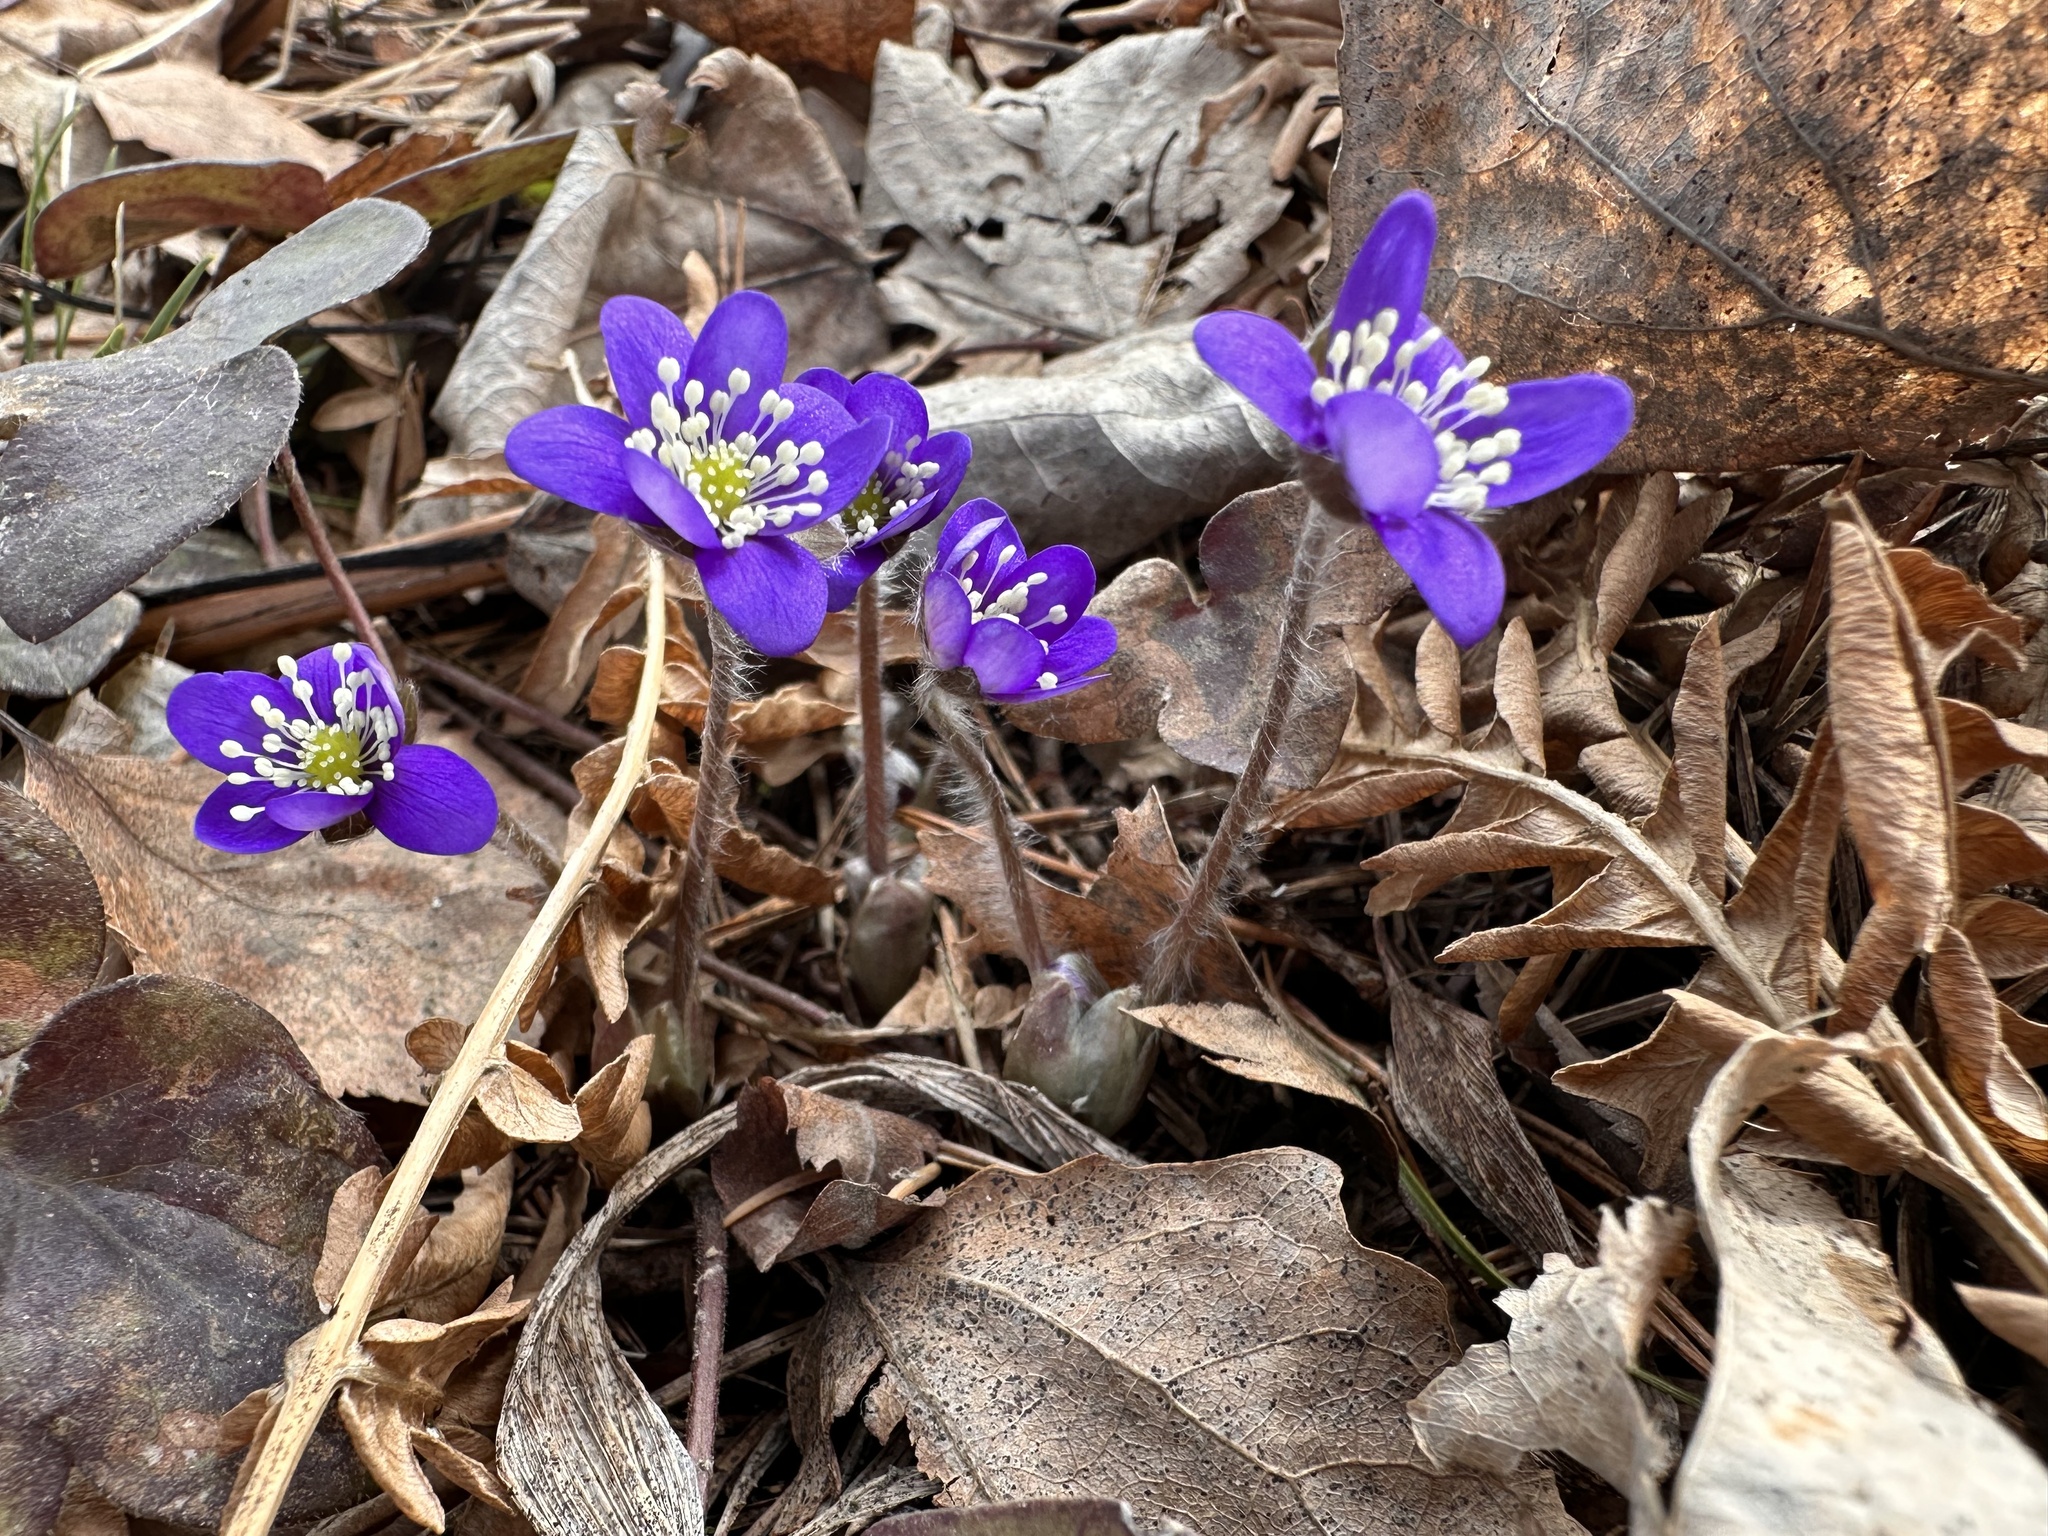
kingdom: Plantae
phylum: Tracheophyta
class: Magnoliopsida
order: Ranunculales
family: Ranunculaceae
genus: Hepatica
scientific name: Hepatica nobilis
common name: Liverleaf
